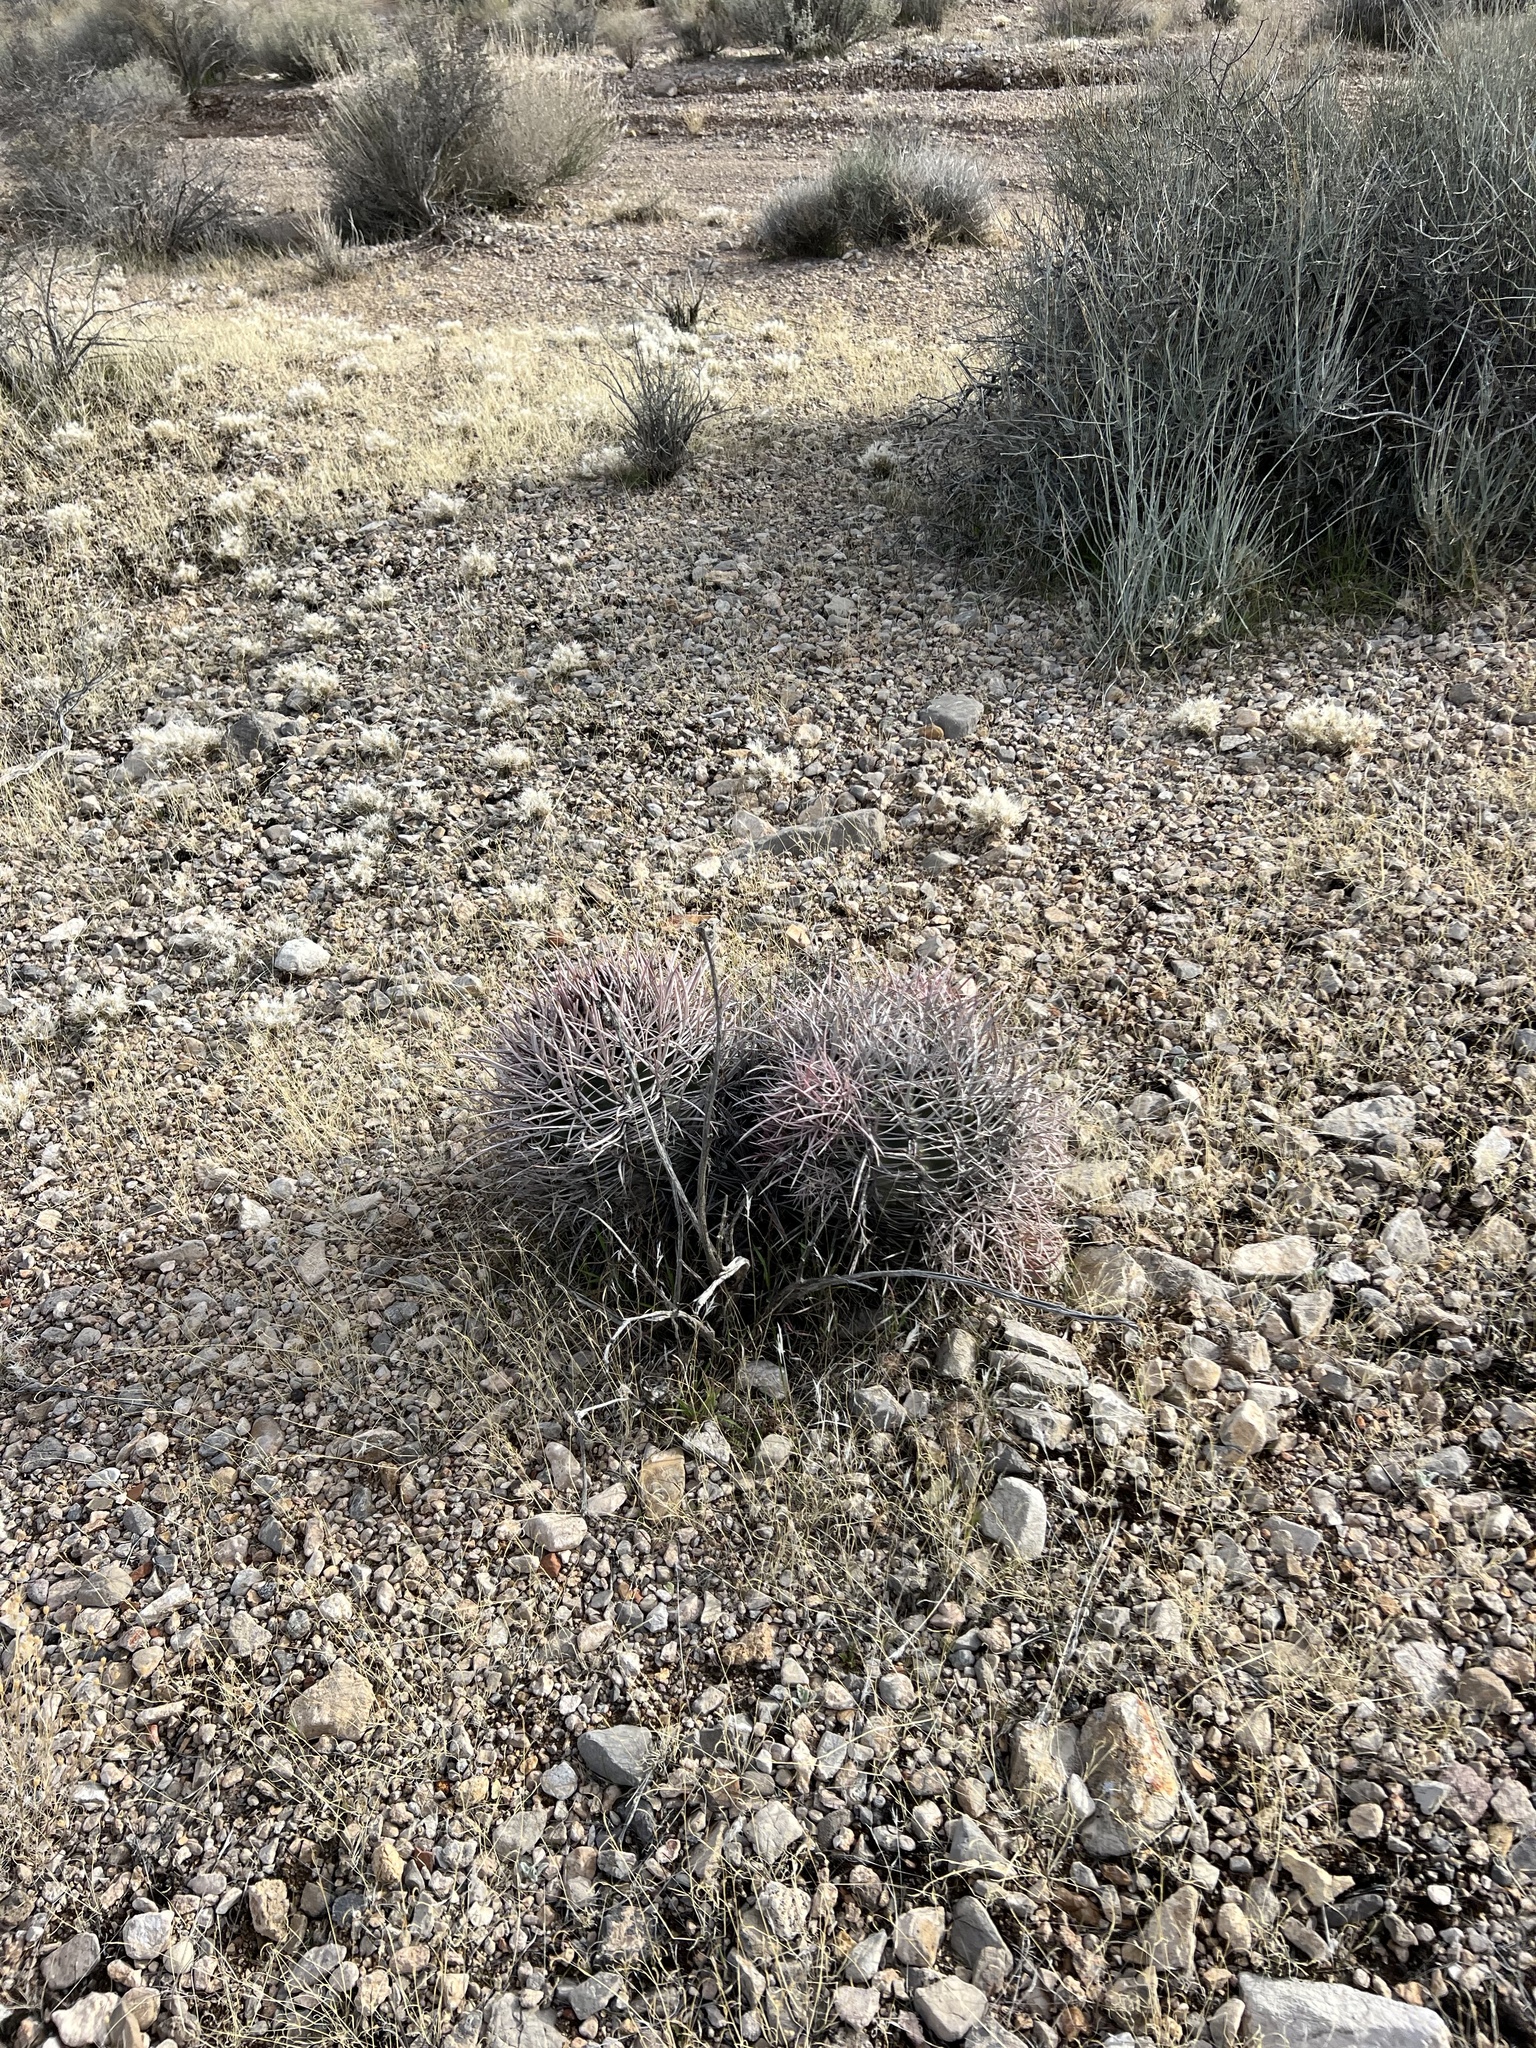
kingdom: Plantae
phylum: Tracheophyta
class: Magnoliopsida
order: Caryophyllales
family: Cactaceae
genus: Echinocactus
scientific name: Echinocactus polycephalus
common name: Cottontop cactus
